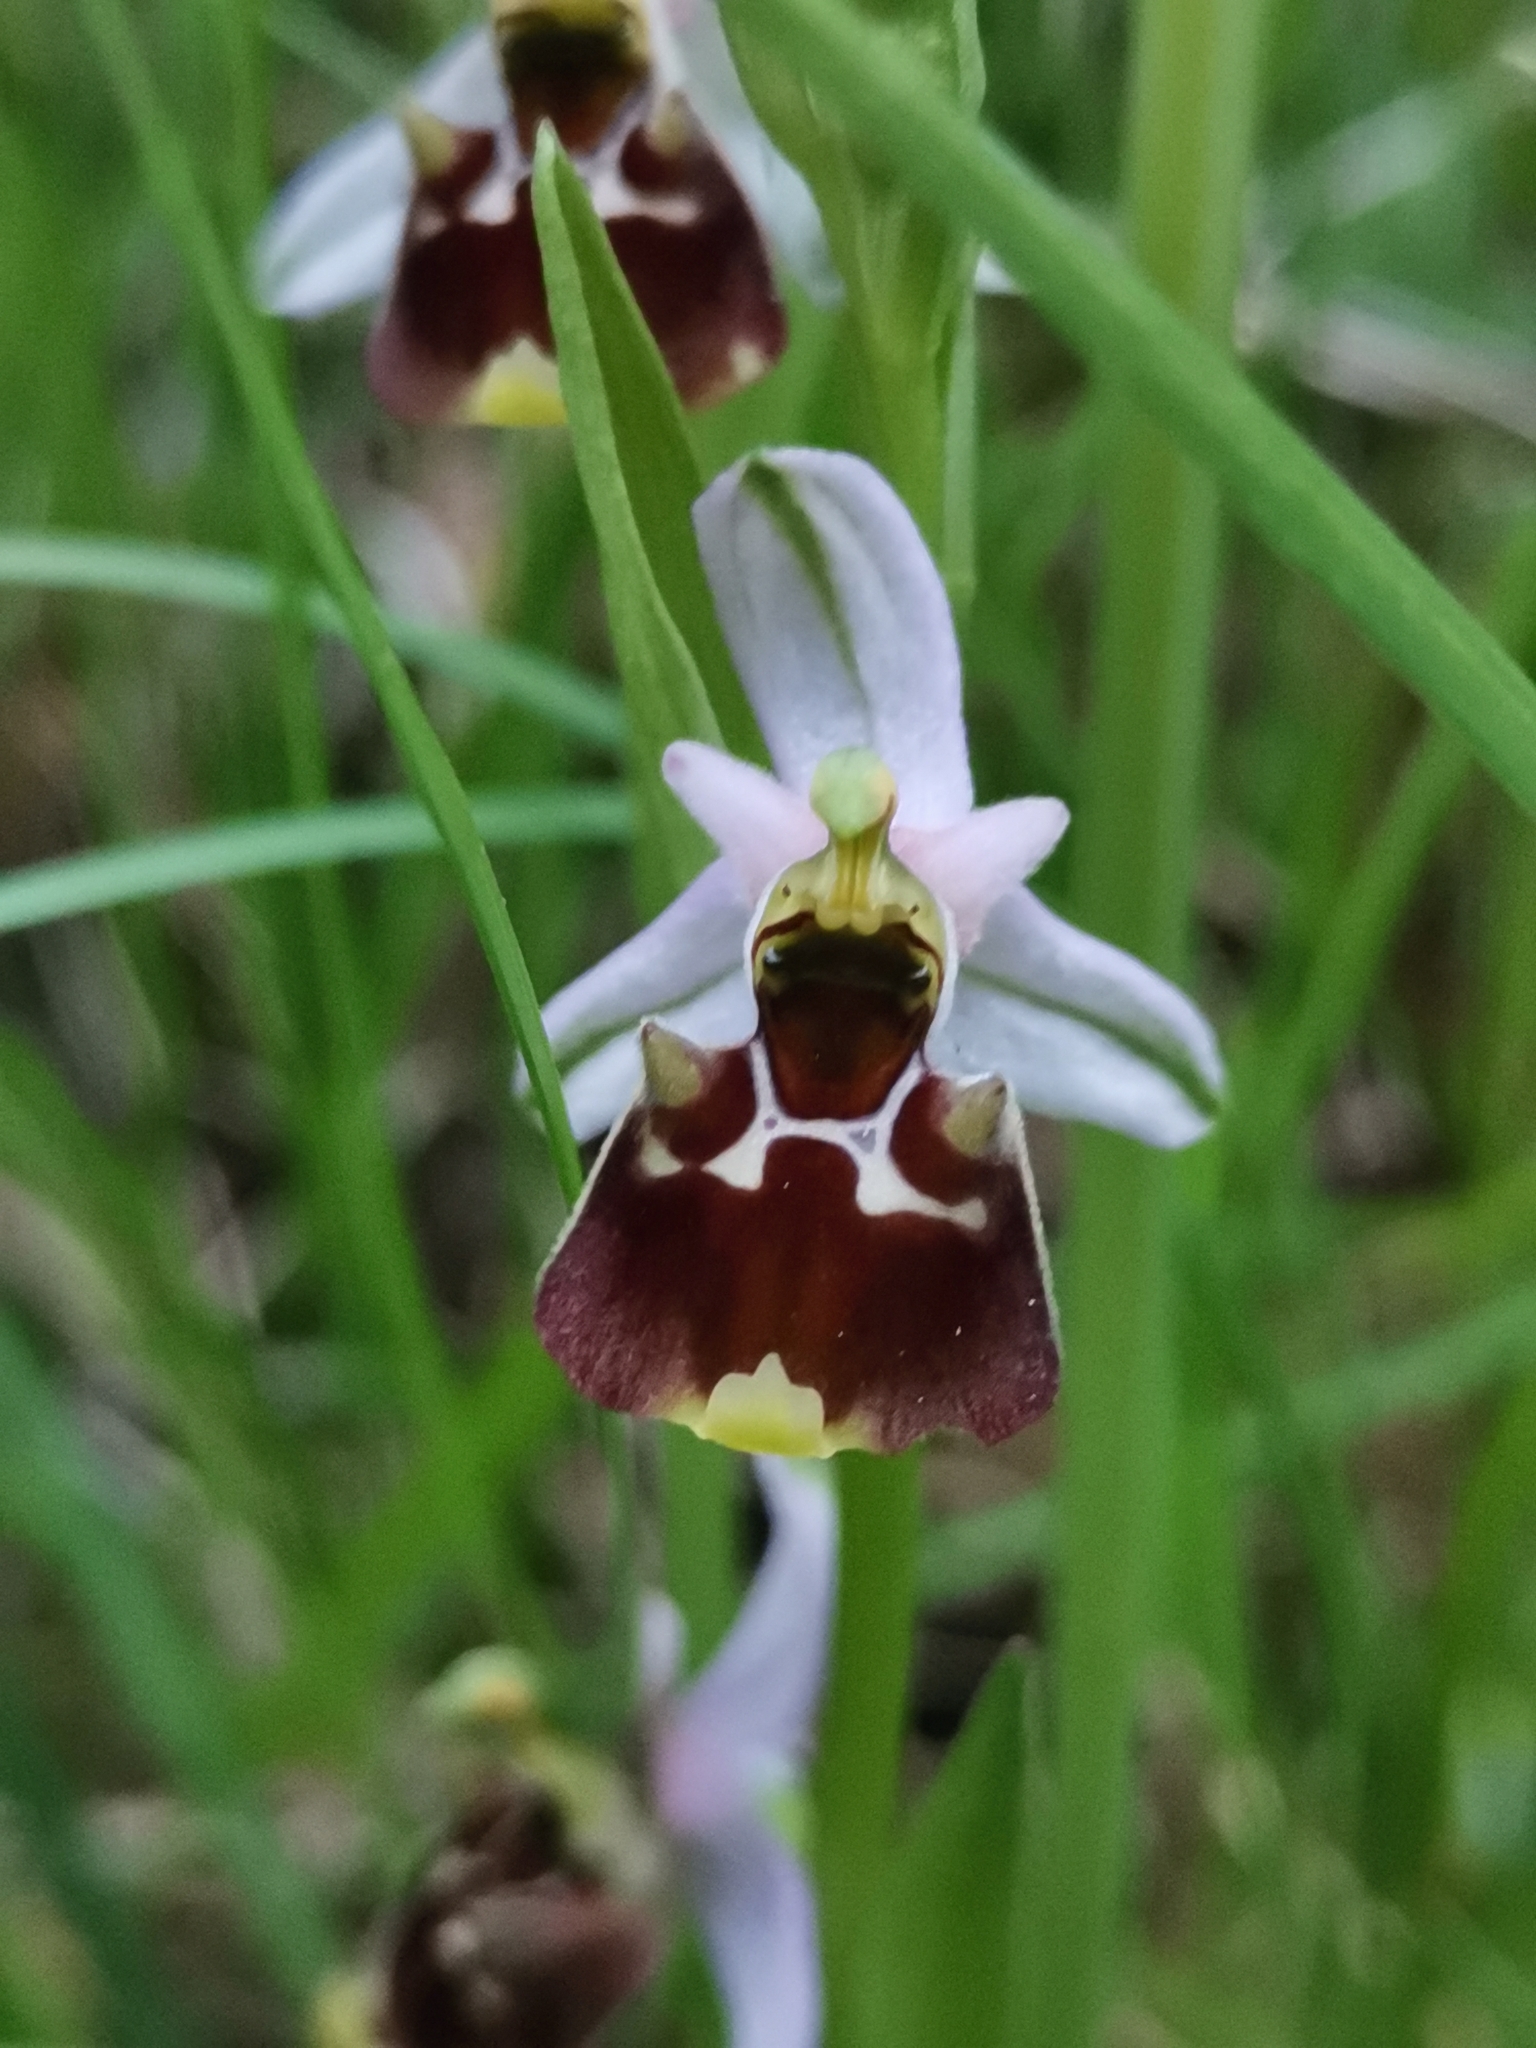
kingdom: Plantae
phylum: Tracheophyta
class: Liliopsida
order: Asparagales
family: Orchidaceae
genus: Ophrys
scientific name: Ophrys holosericea
